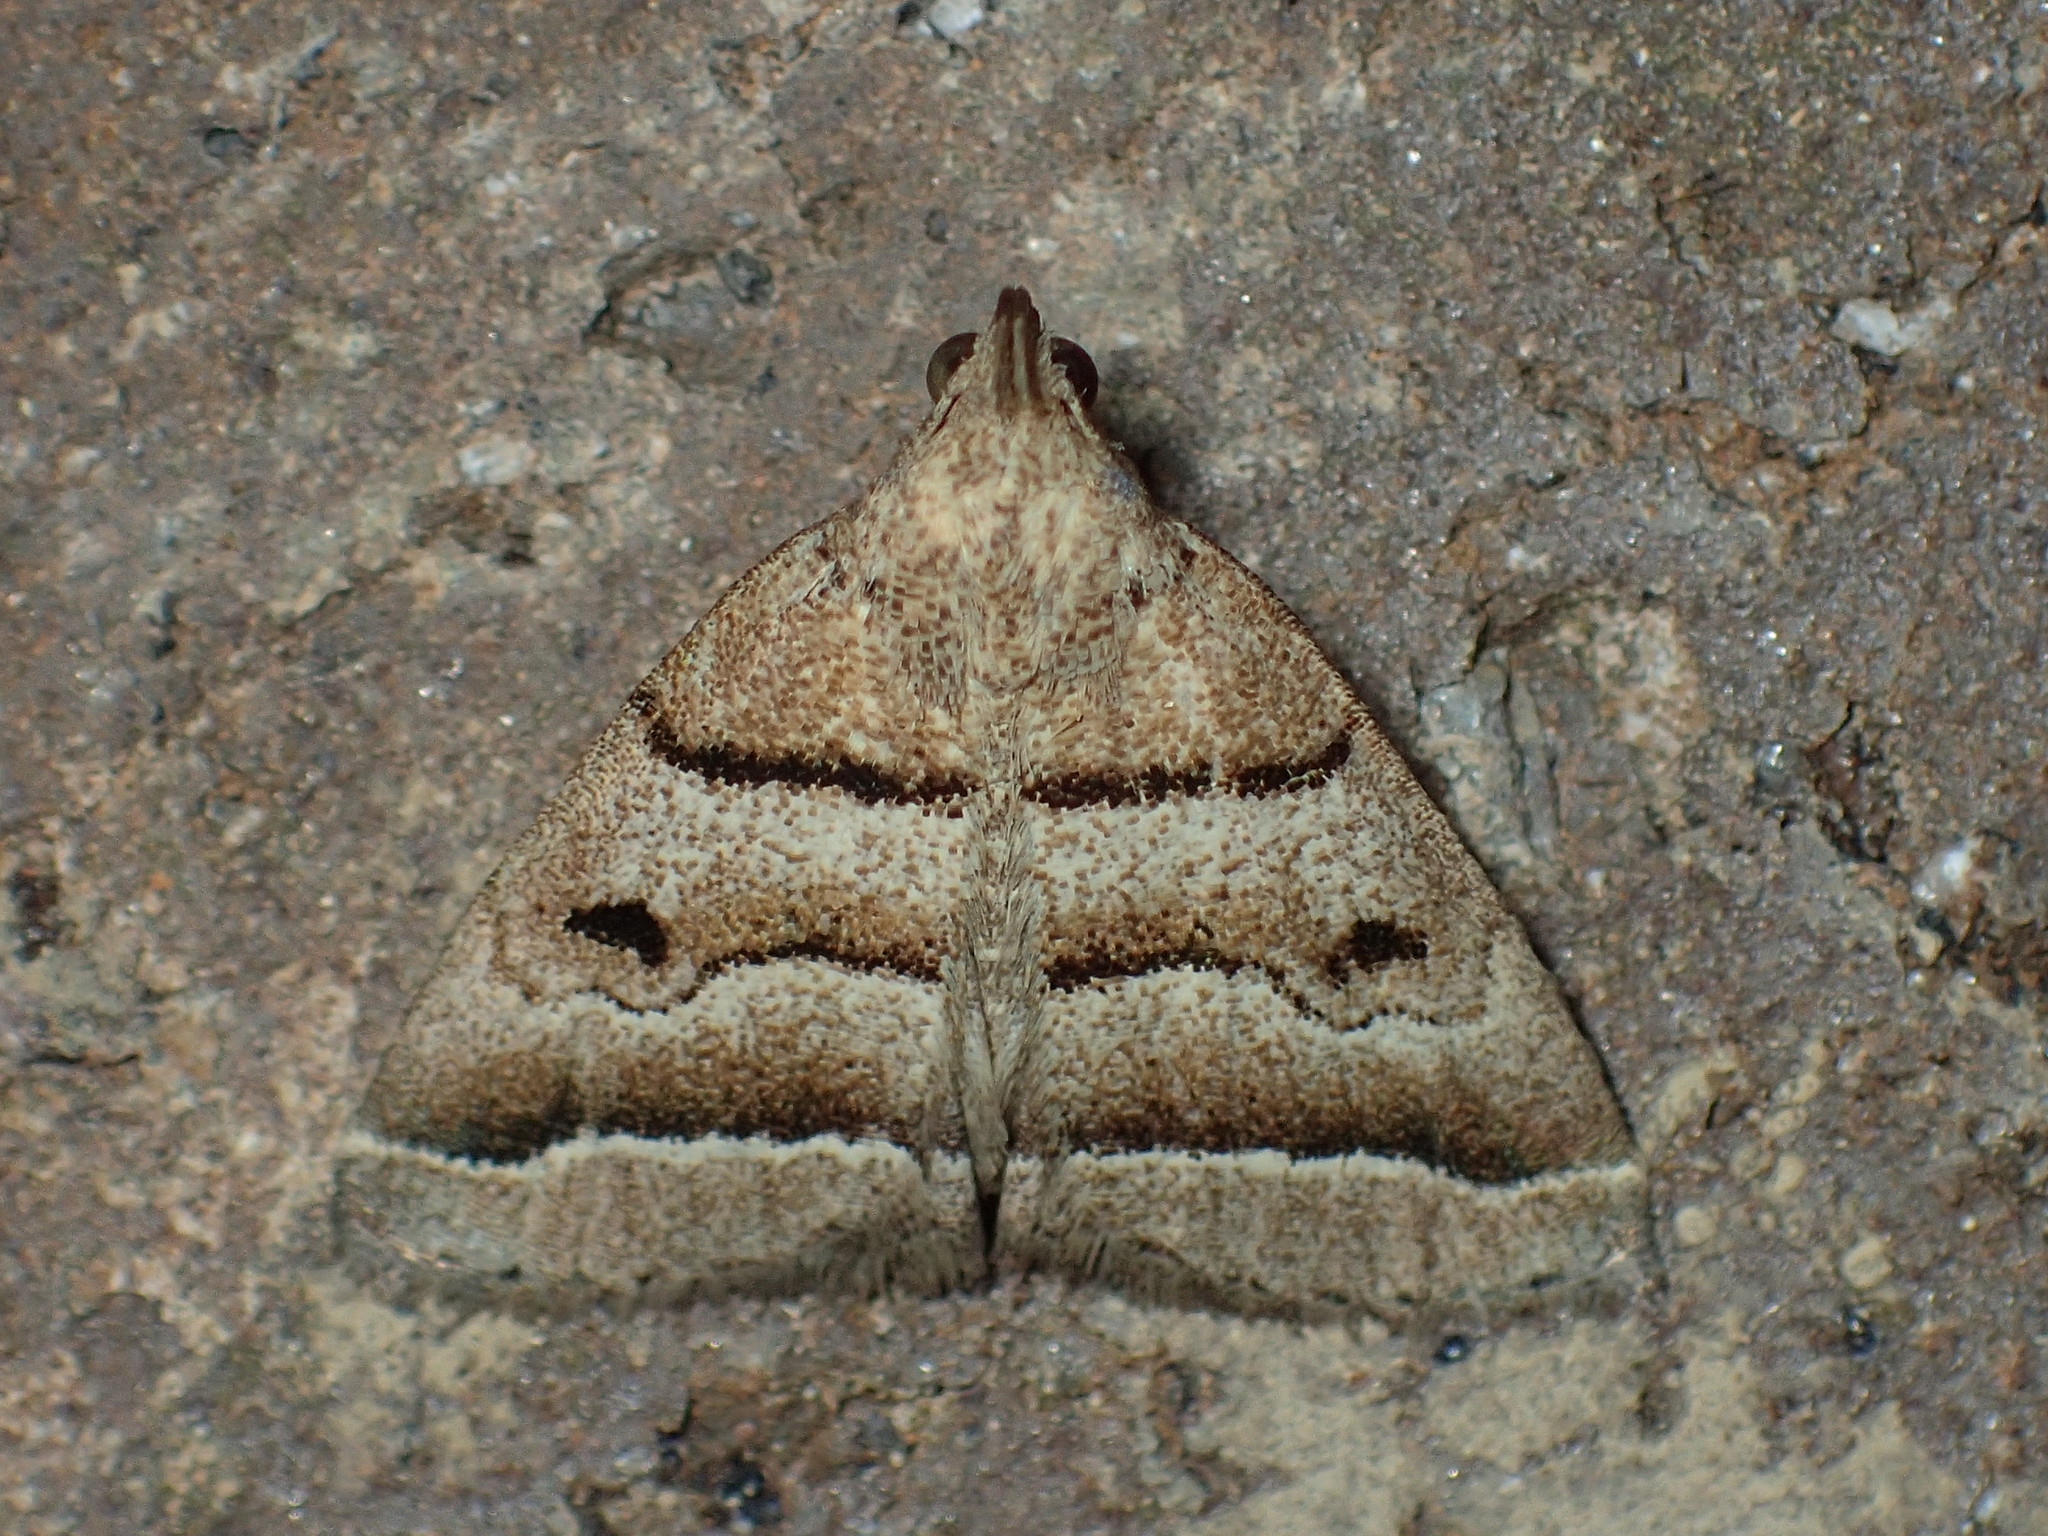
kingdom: Animalia
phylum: Arthropoda
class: Insecta
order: Lepidoptera
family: Erebidae
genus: Zanclognatha
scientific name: Zanclognatha atrilineella
